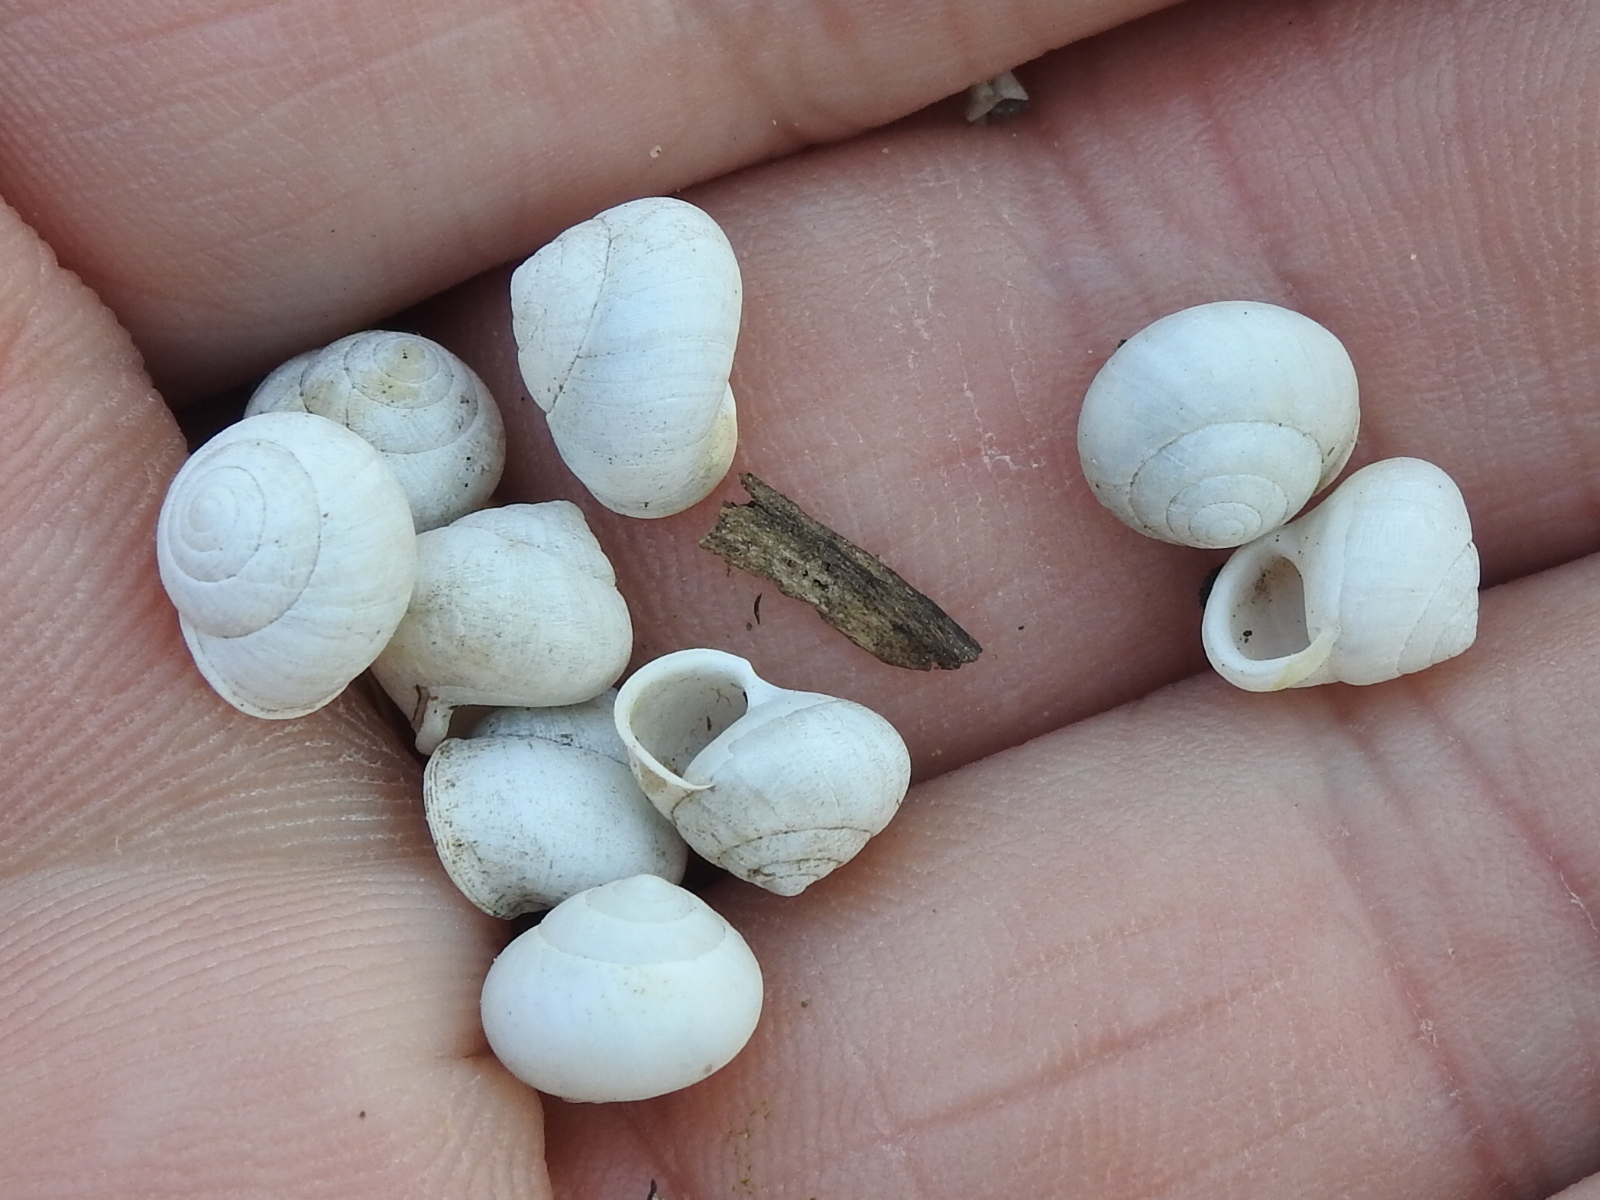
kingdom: Animalia
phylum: Mollusca
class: Gastropoda
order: Cycloneritida
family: Helicinidae
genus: Helicina
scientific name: Helicina orbiculata
